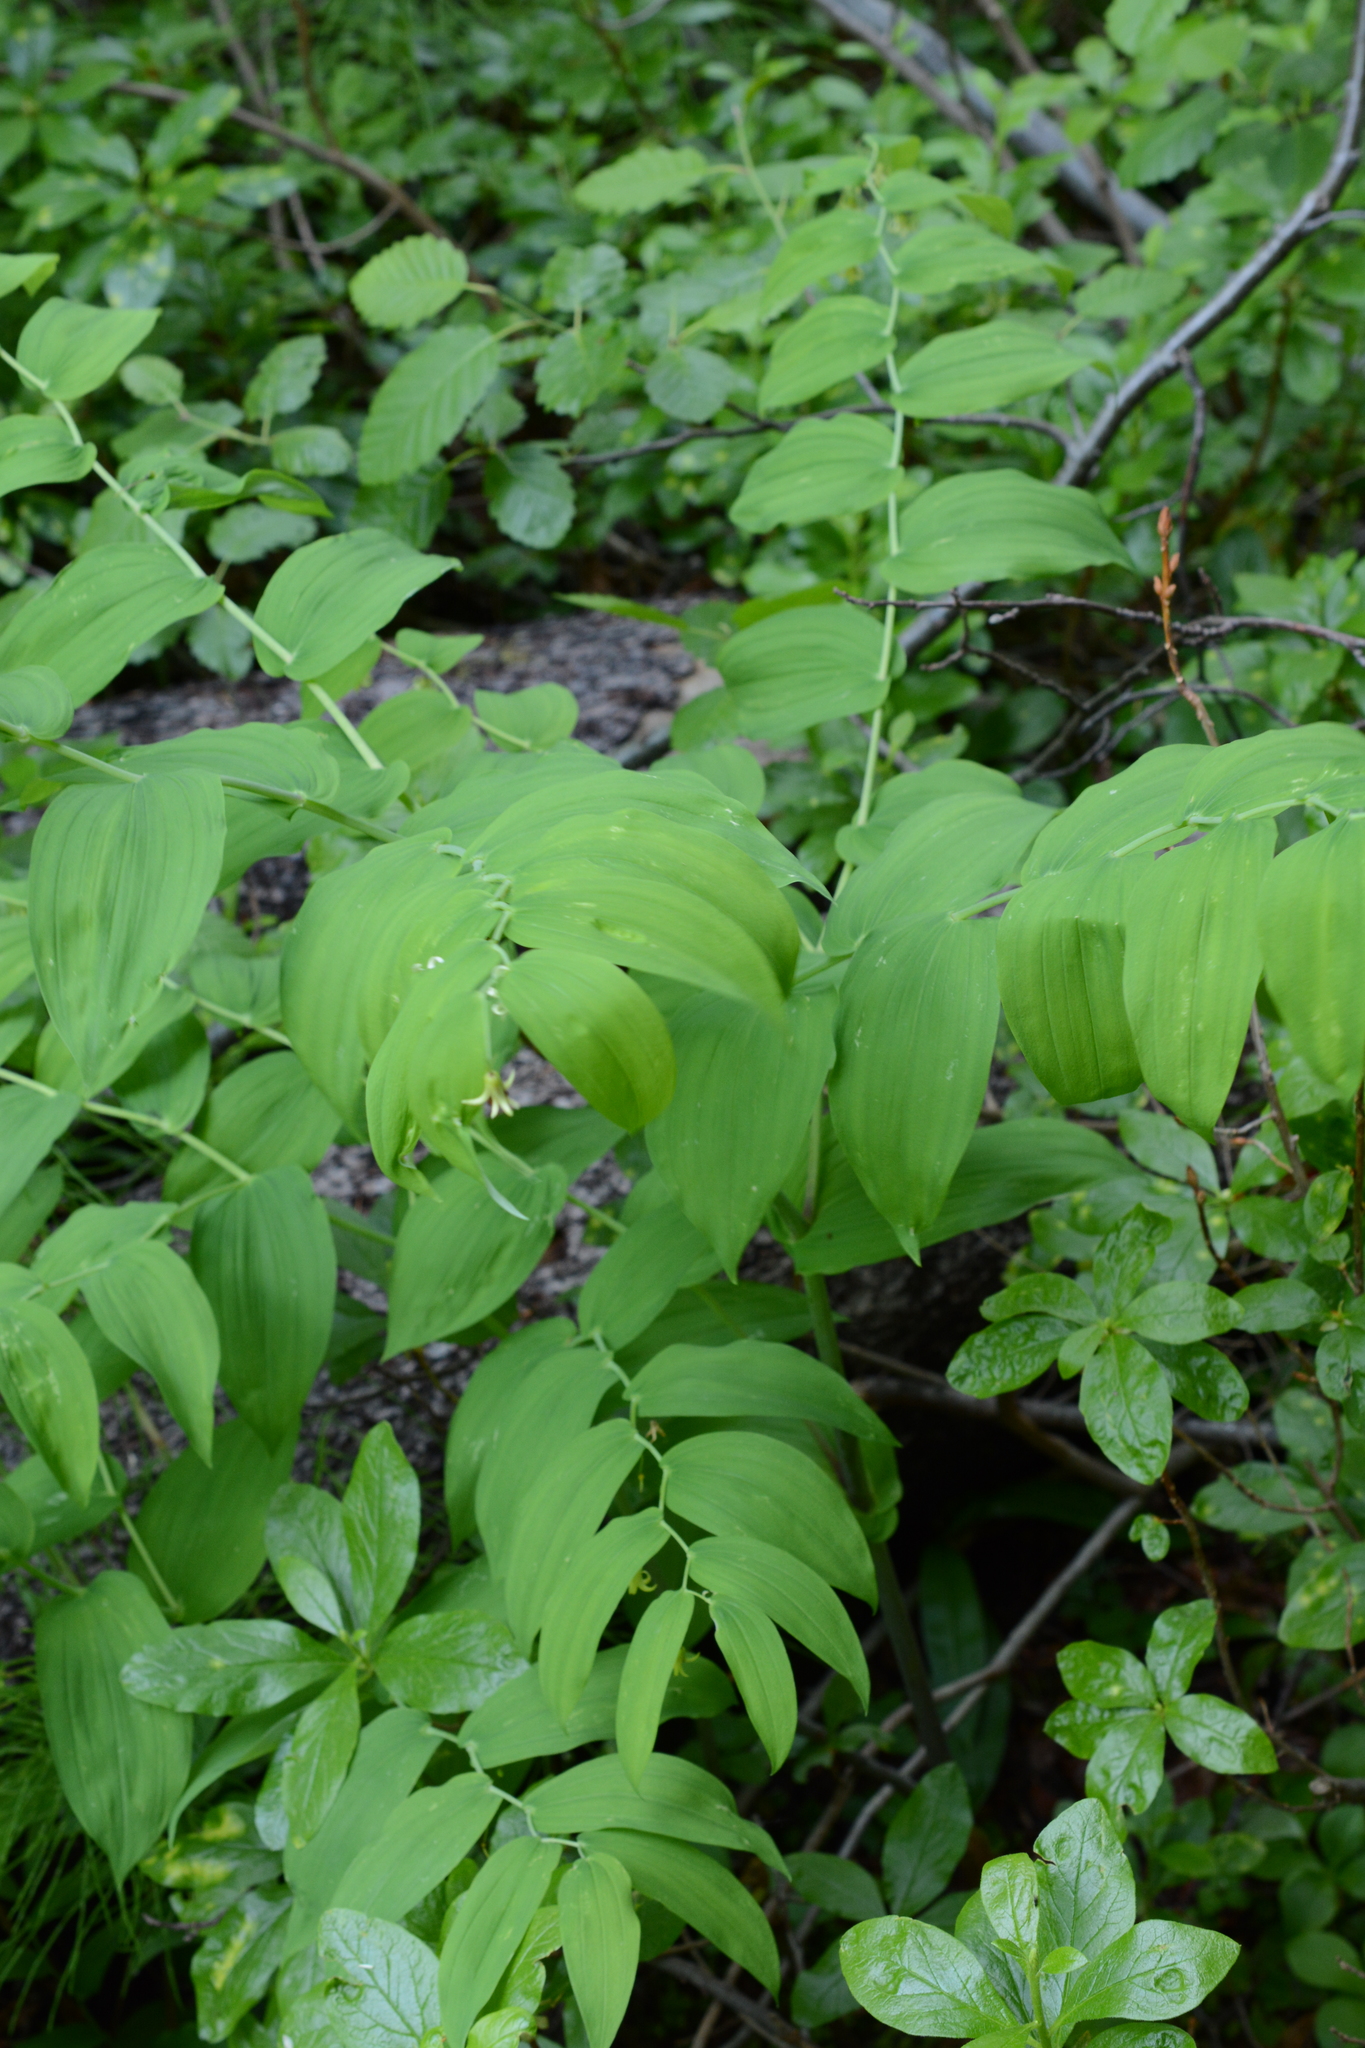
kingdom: Plantae
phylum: Tracheophyta
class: Liliopsida
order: Liliales
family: Liliaceae
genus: Streptopus
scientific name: Streptopus amplexifolius
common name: Clasp twisted stalk
